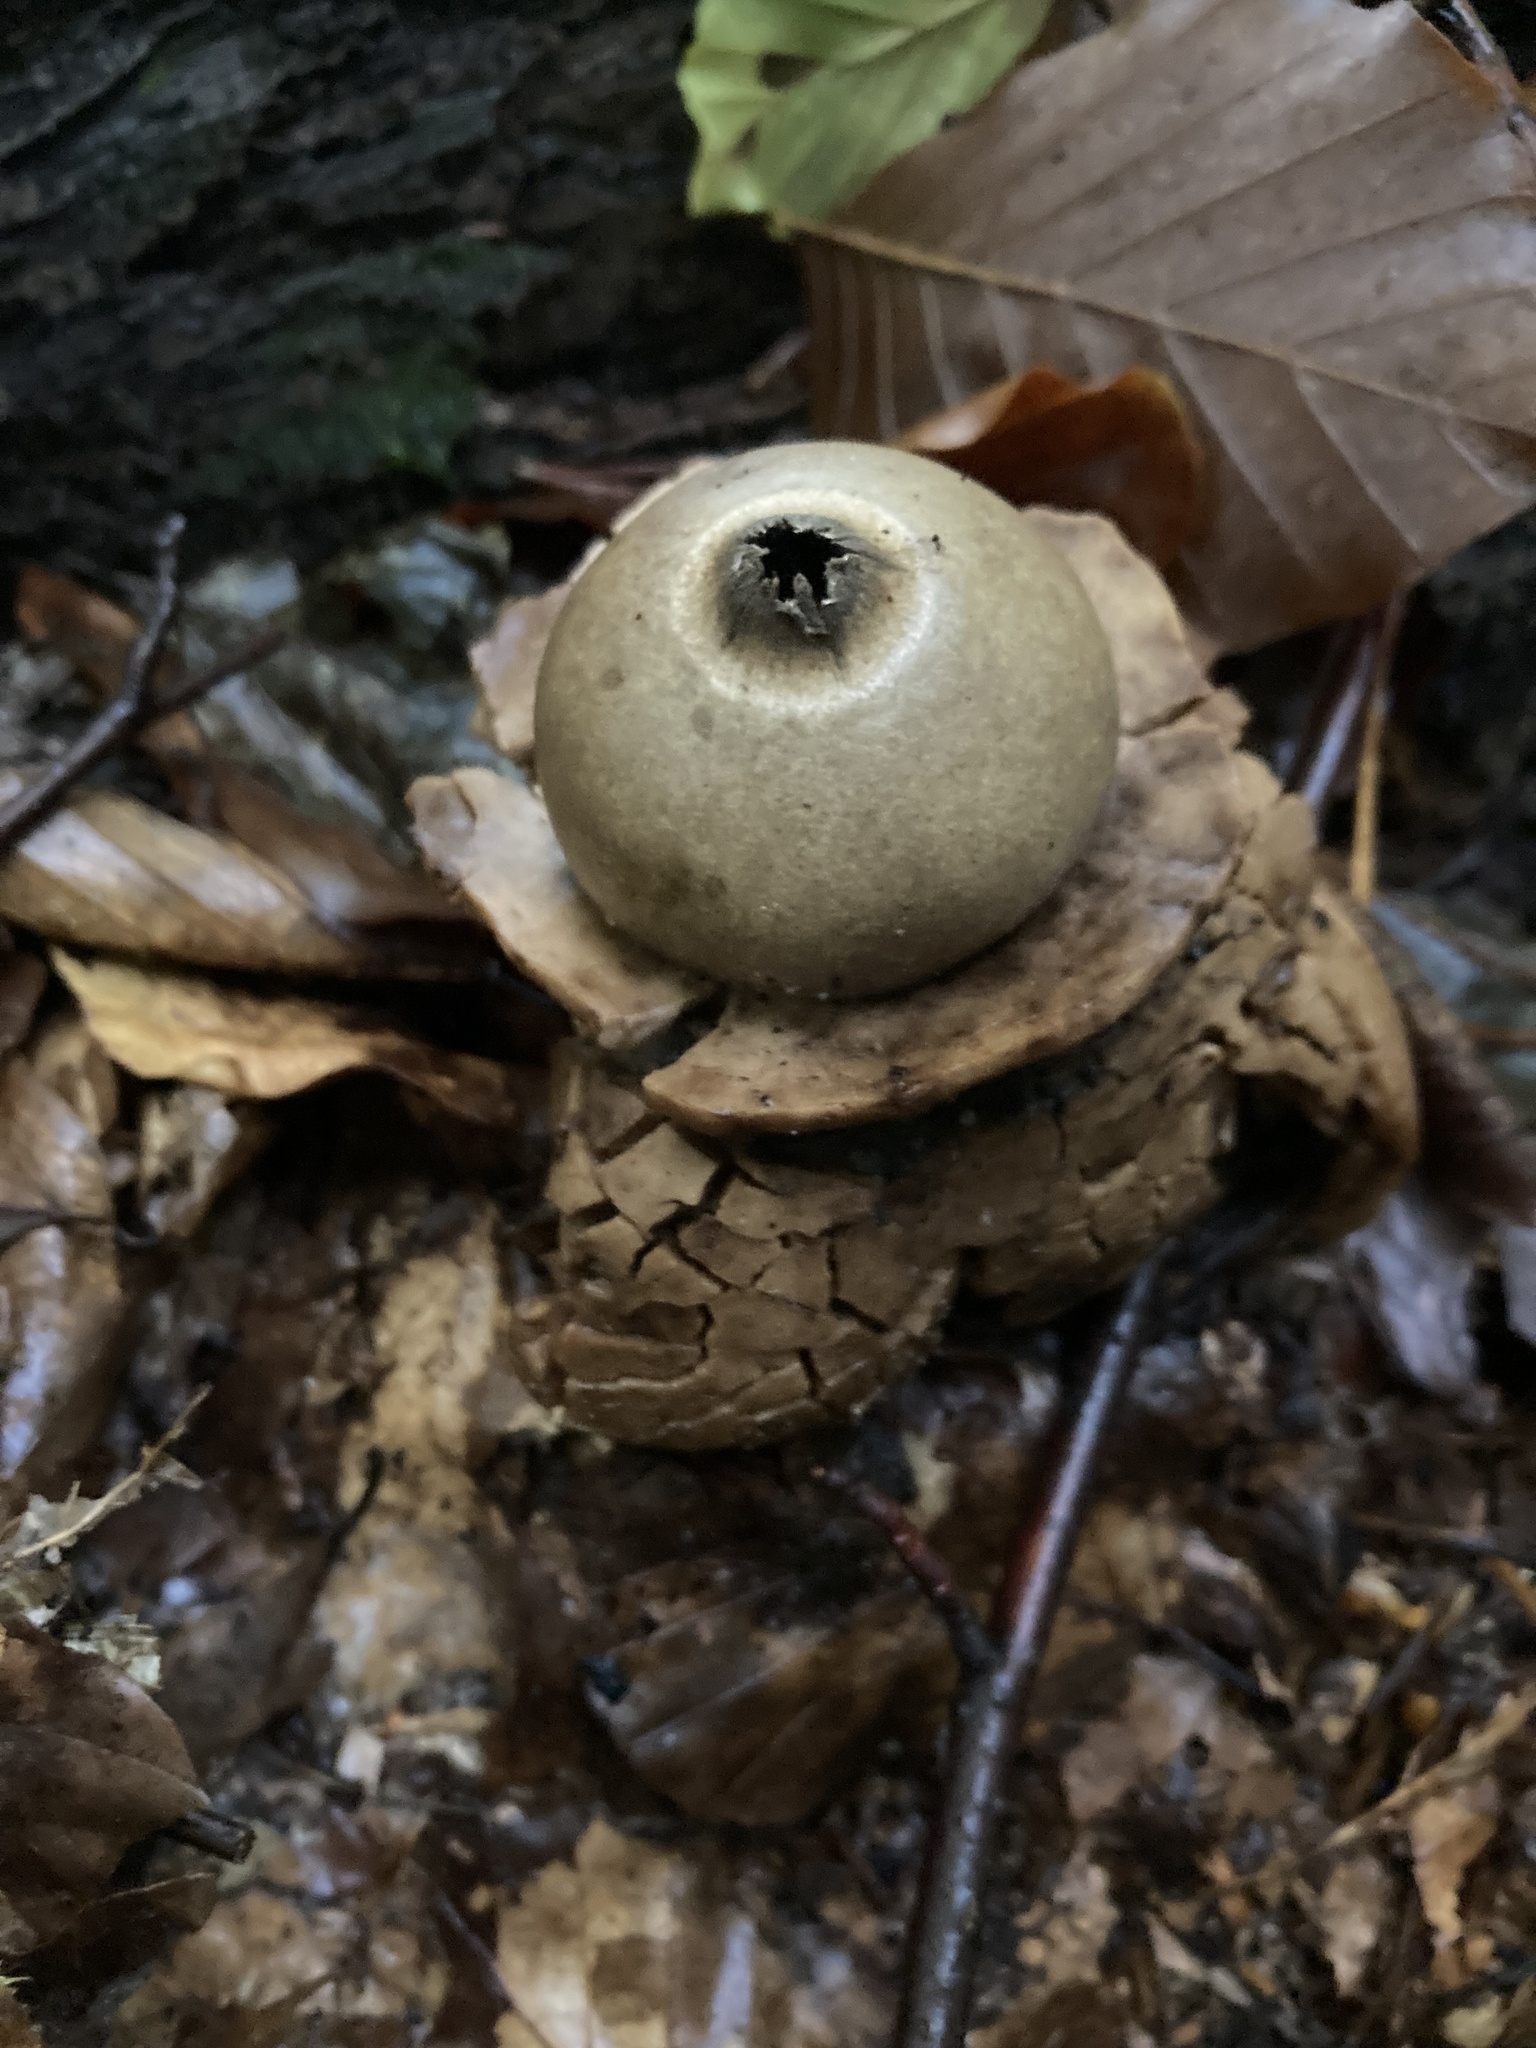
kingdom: Fungi
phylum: Basidiomycota
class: Agaricomycetes
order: Geastrales
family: Geastraceae
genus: Geastrum
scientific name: Geastrum michelianum
